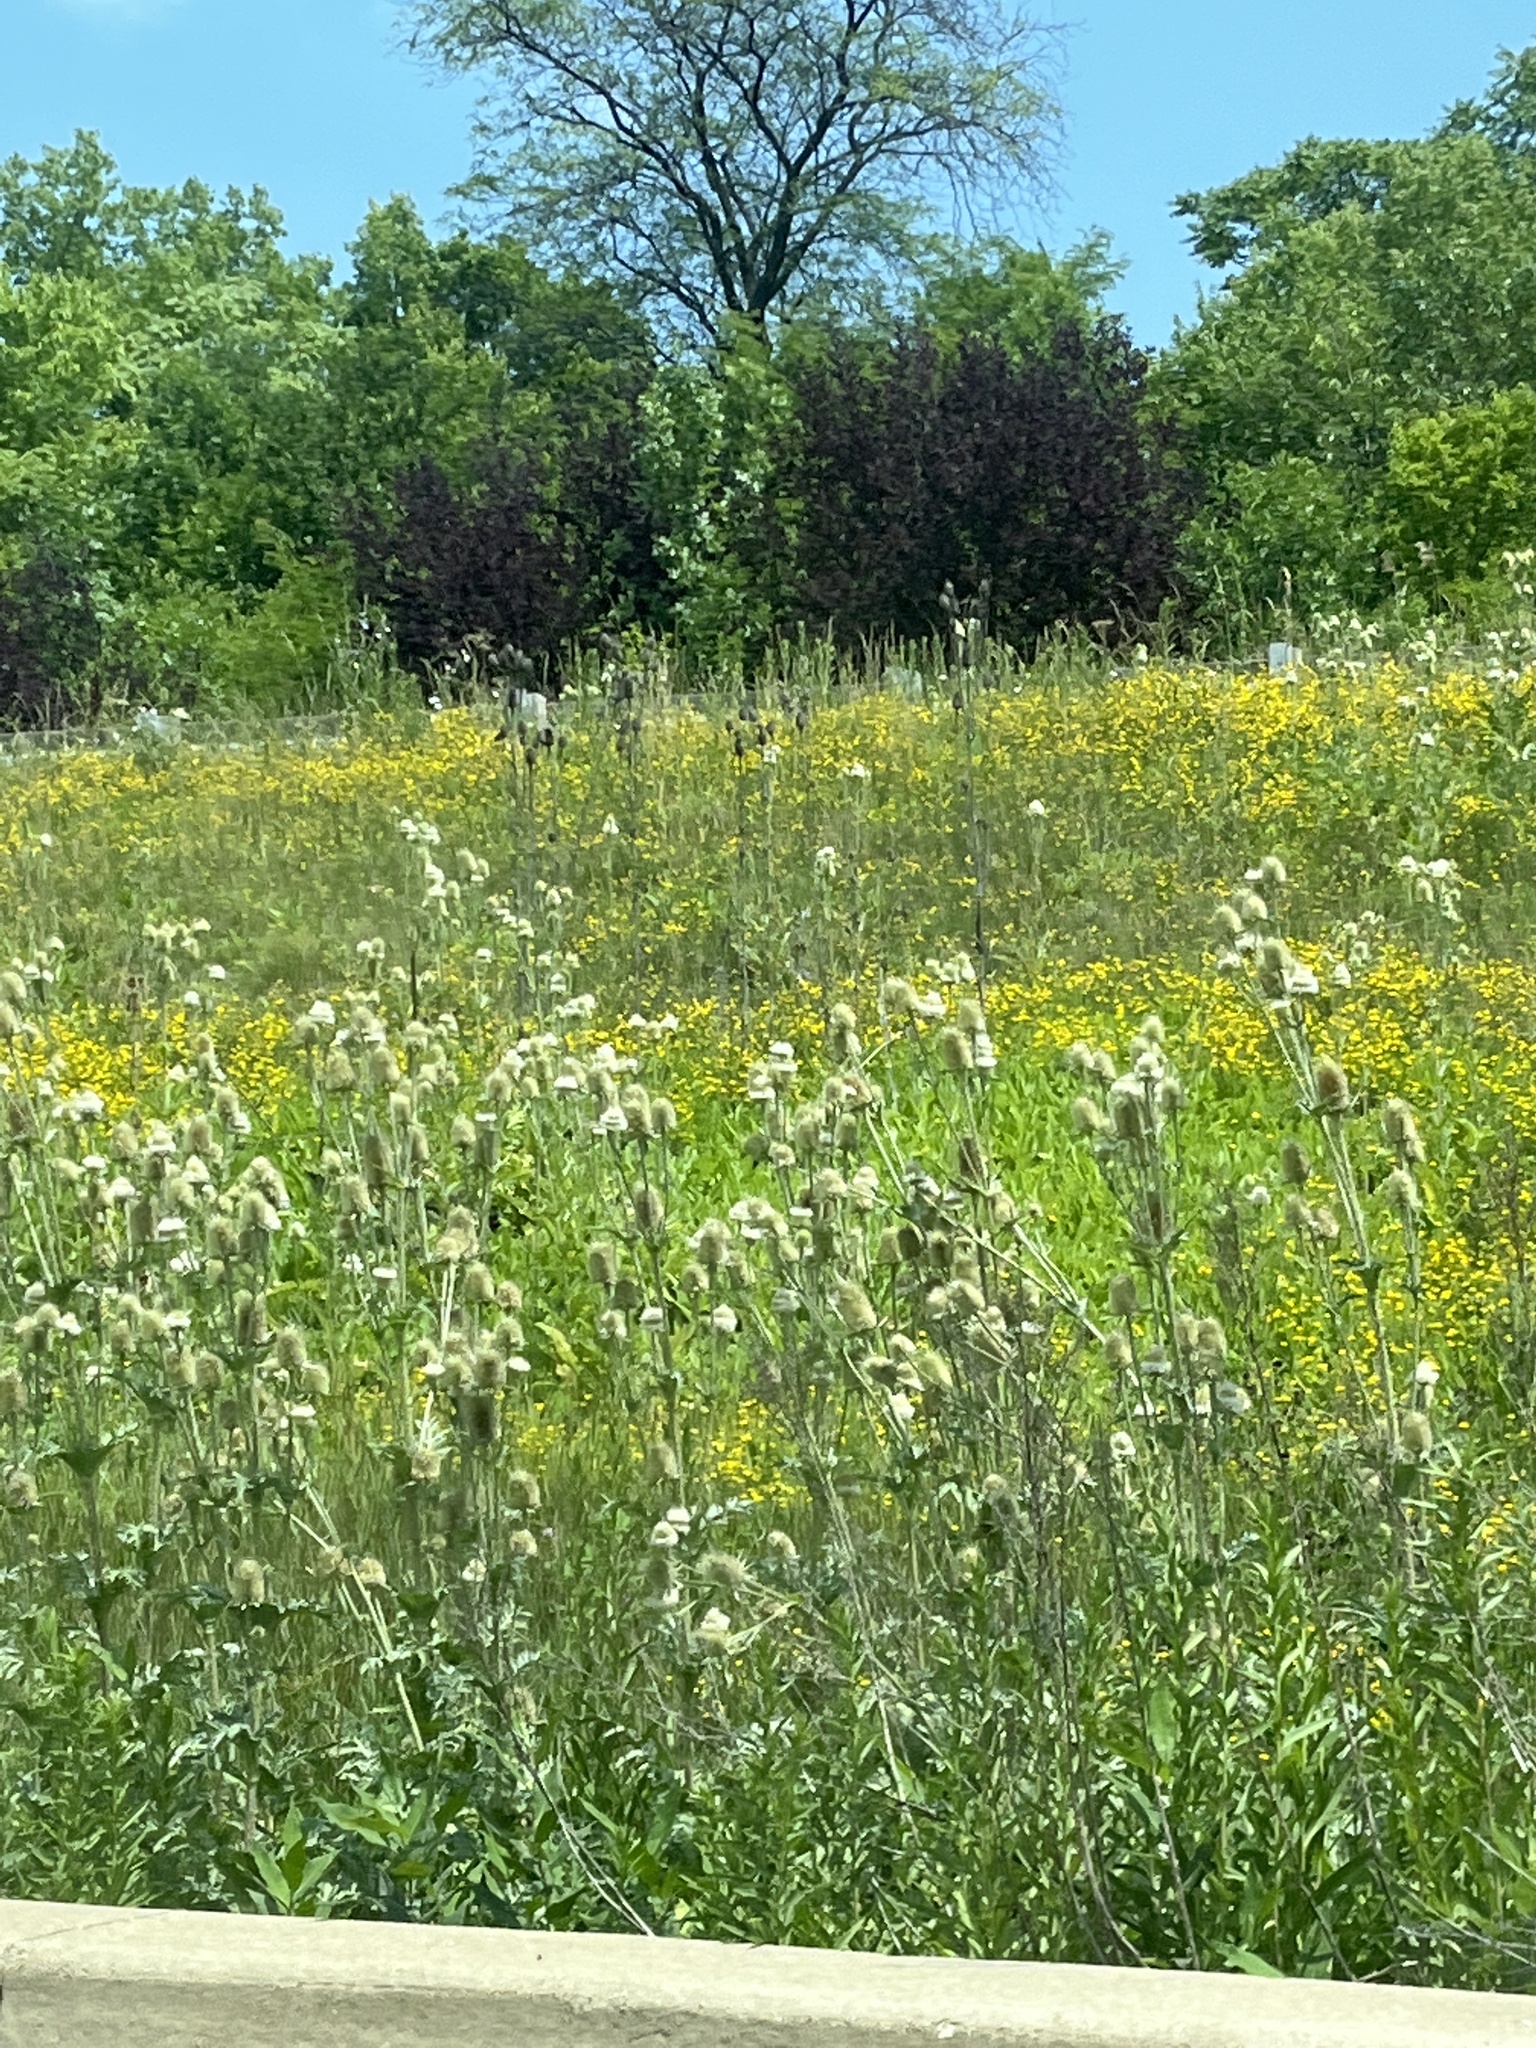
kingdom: Plantae
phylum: Tracheophyta
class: Magnoliopsida
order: Dipsacales
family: Caprifoliaceae
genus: Dipsacus
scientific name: Dipsacus laciniatus
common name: Cut-leaved teasel
